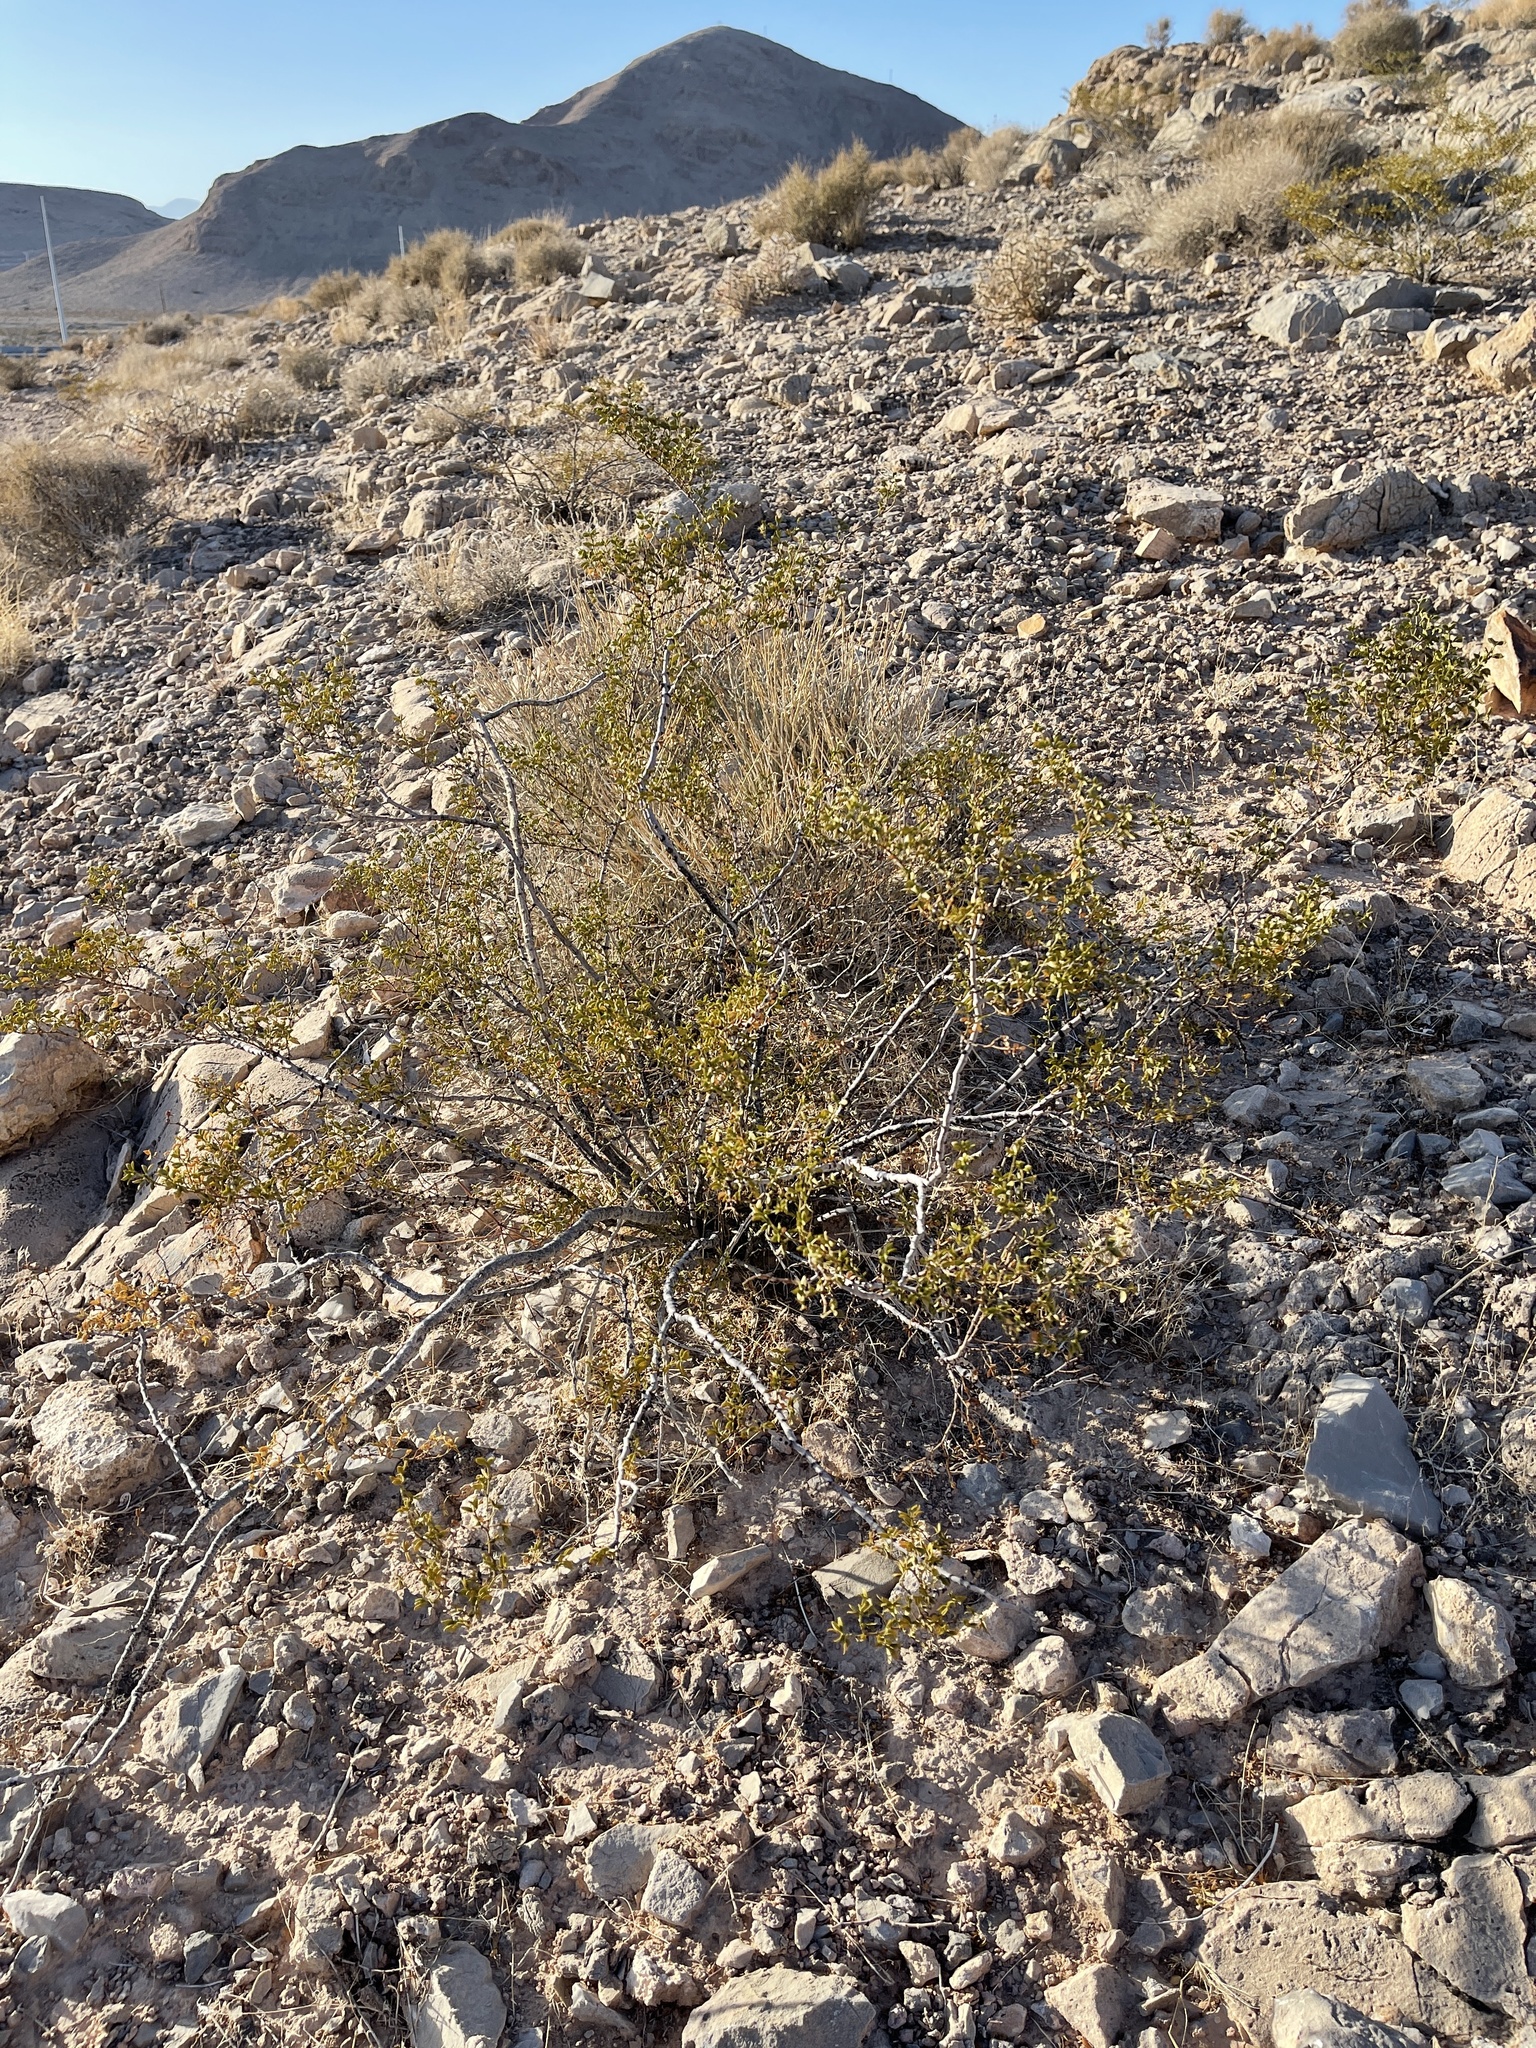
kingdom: Plantae
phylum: Tracheophyta
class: Magnoliopsida
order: Zygophyllales
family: Zygophyllaceae
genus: Larrea
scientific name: Larrea tridentata
